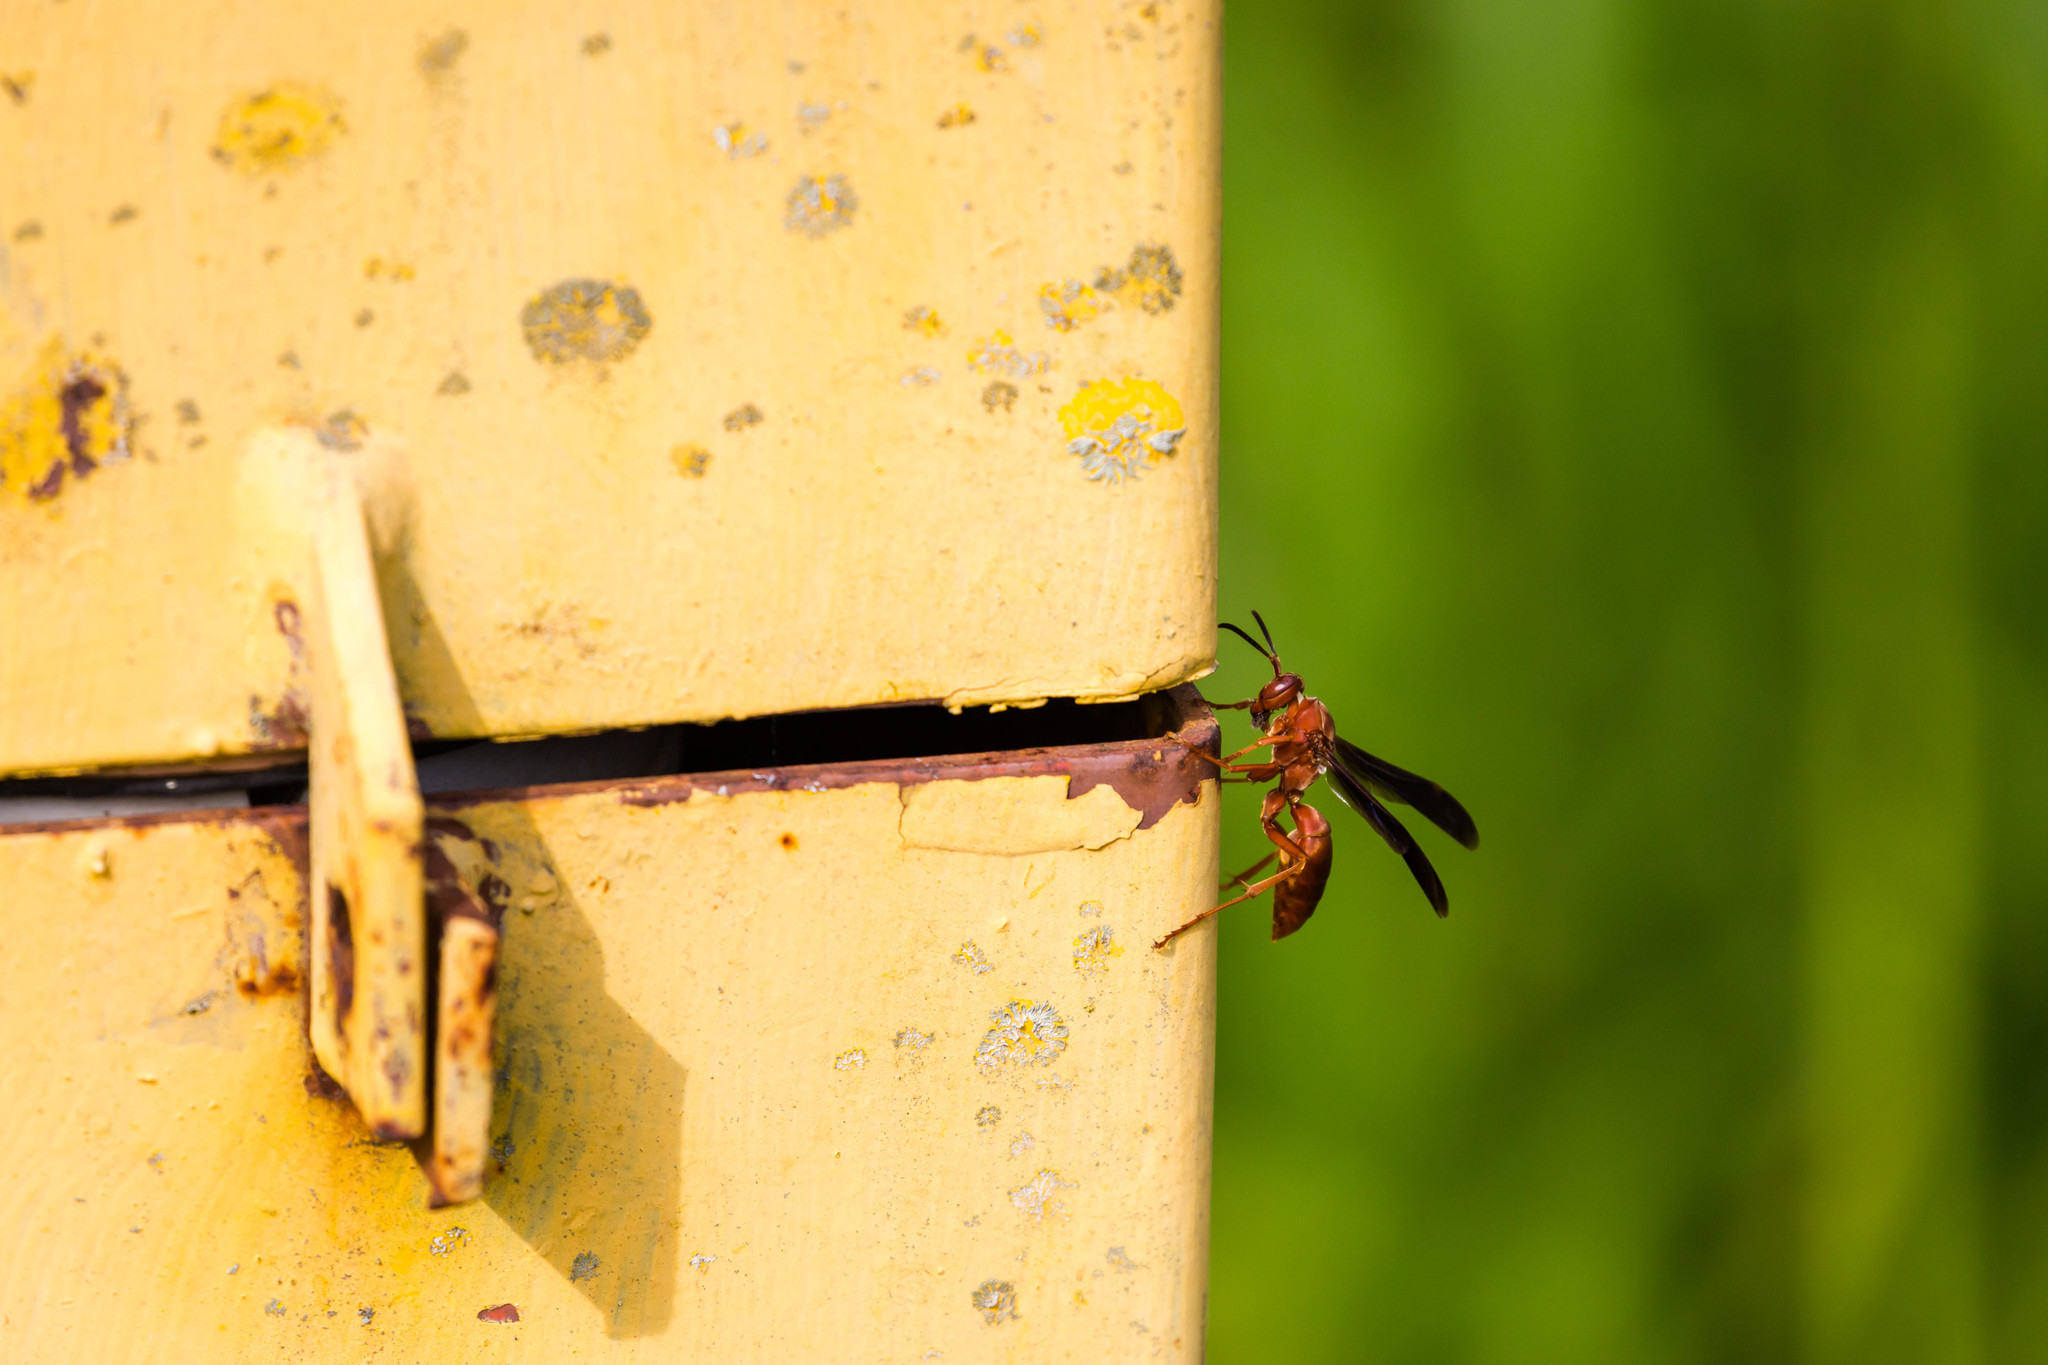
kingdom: Animalia
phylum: Arthropoda
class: Insecta
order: Hymenoptera
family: Vespidae
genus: Fuscopolistes
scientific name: Fuscopolistes
